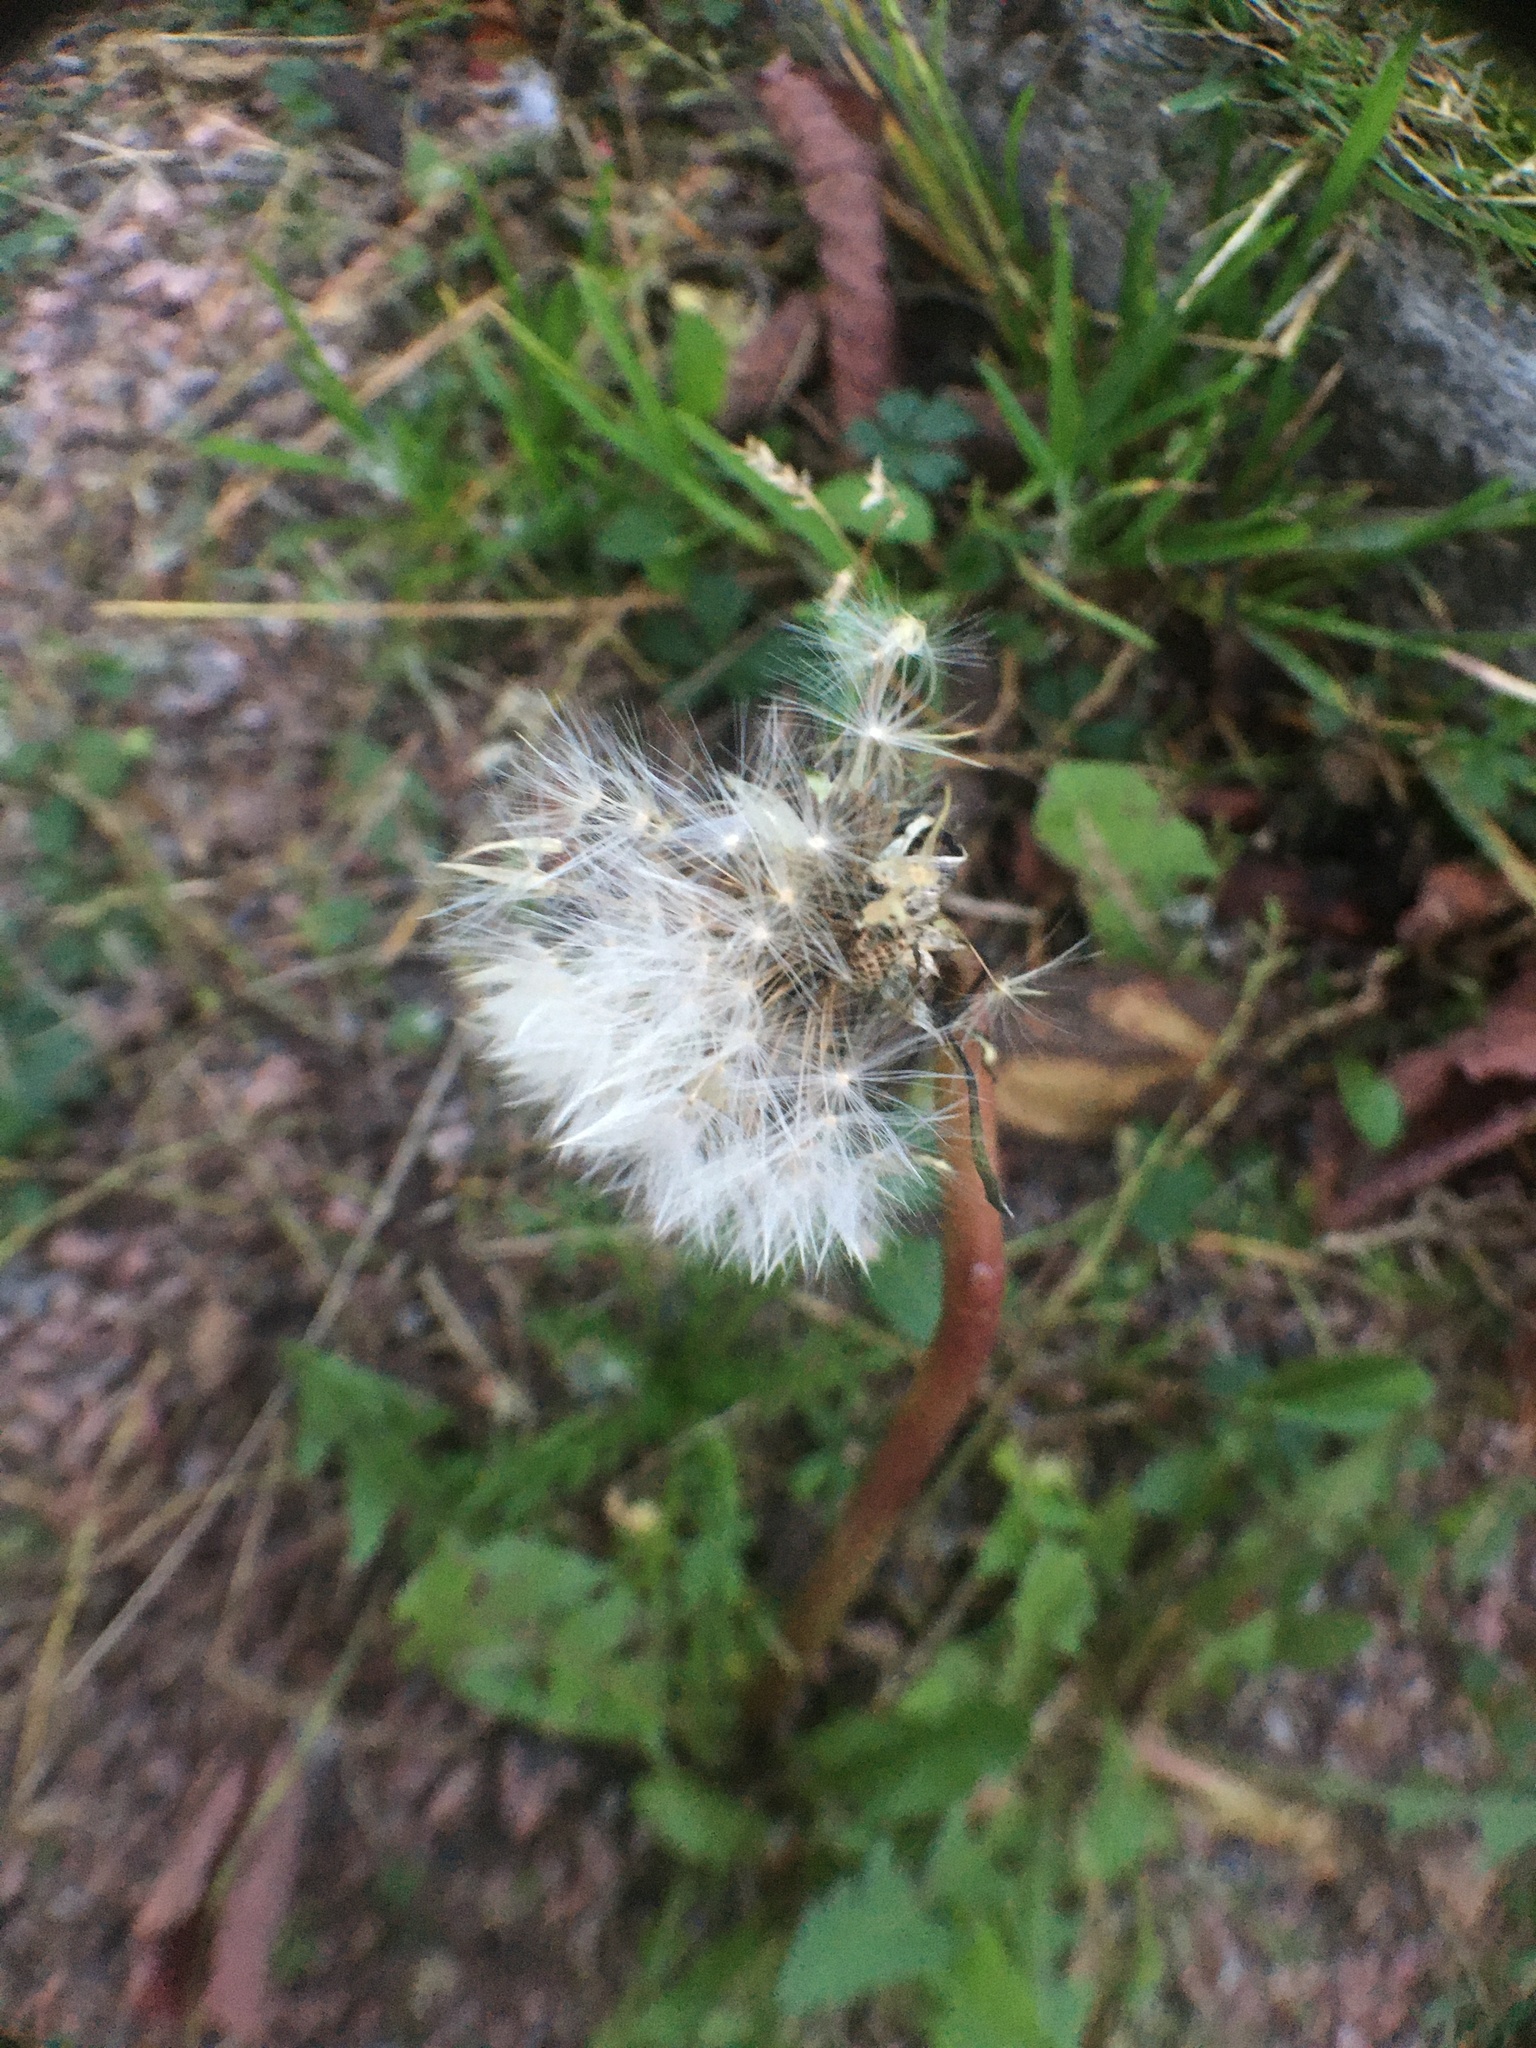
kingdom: Plantae
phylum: Tracheophyta
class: Magnoliopsida
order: Asterales
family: Asteraceae
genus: Taraxacum
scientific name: Taraxacum officinale
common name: Common dandelion
